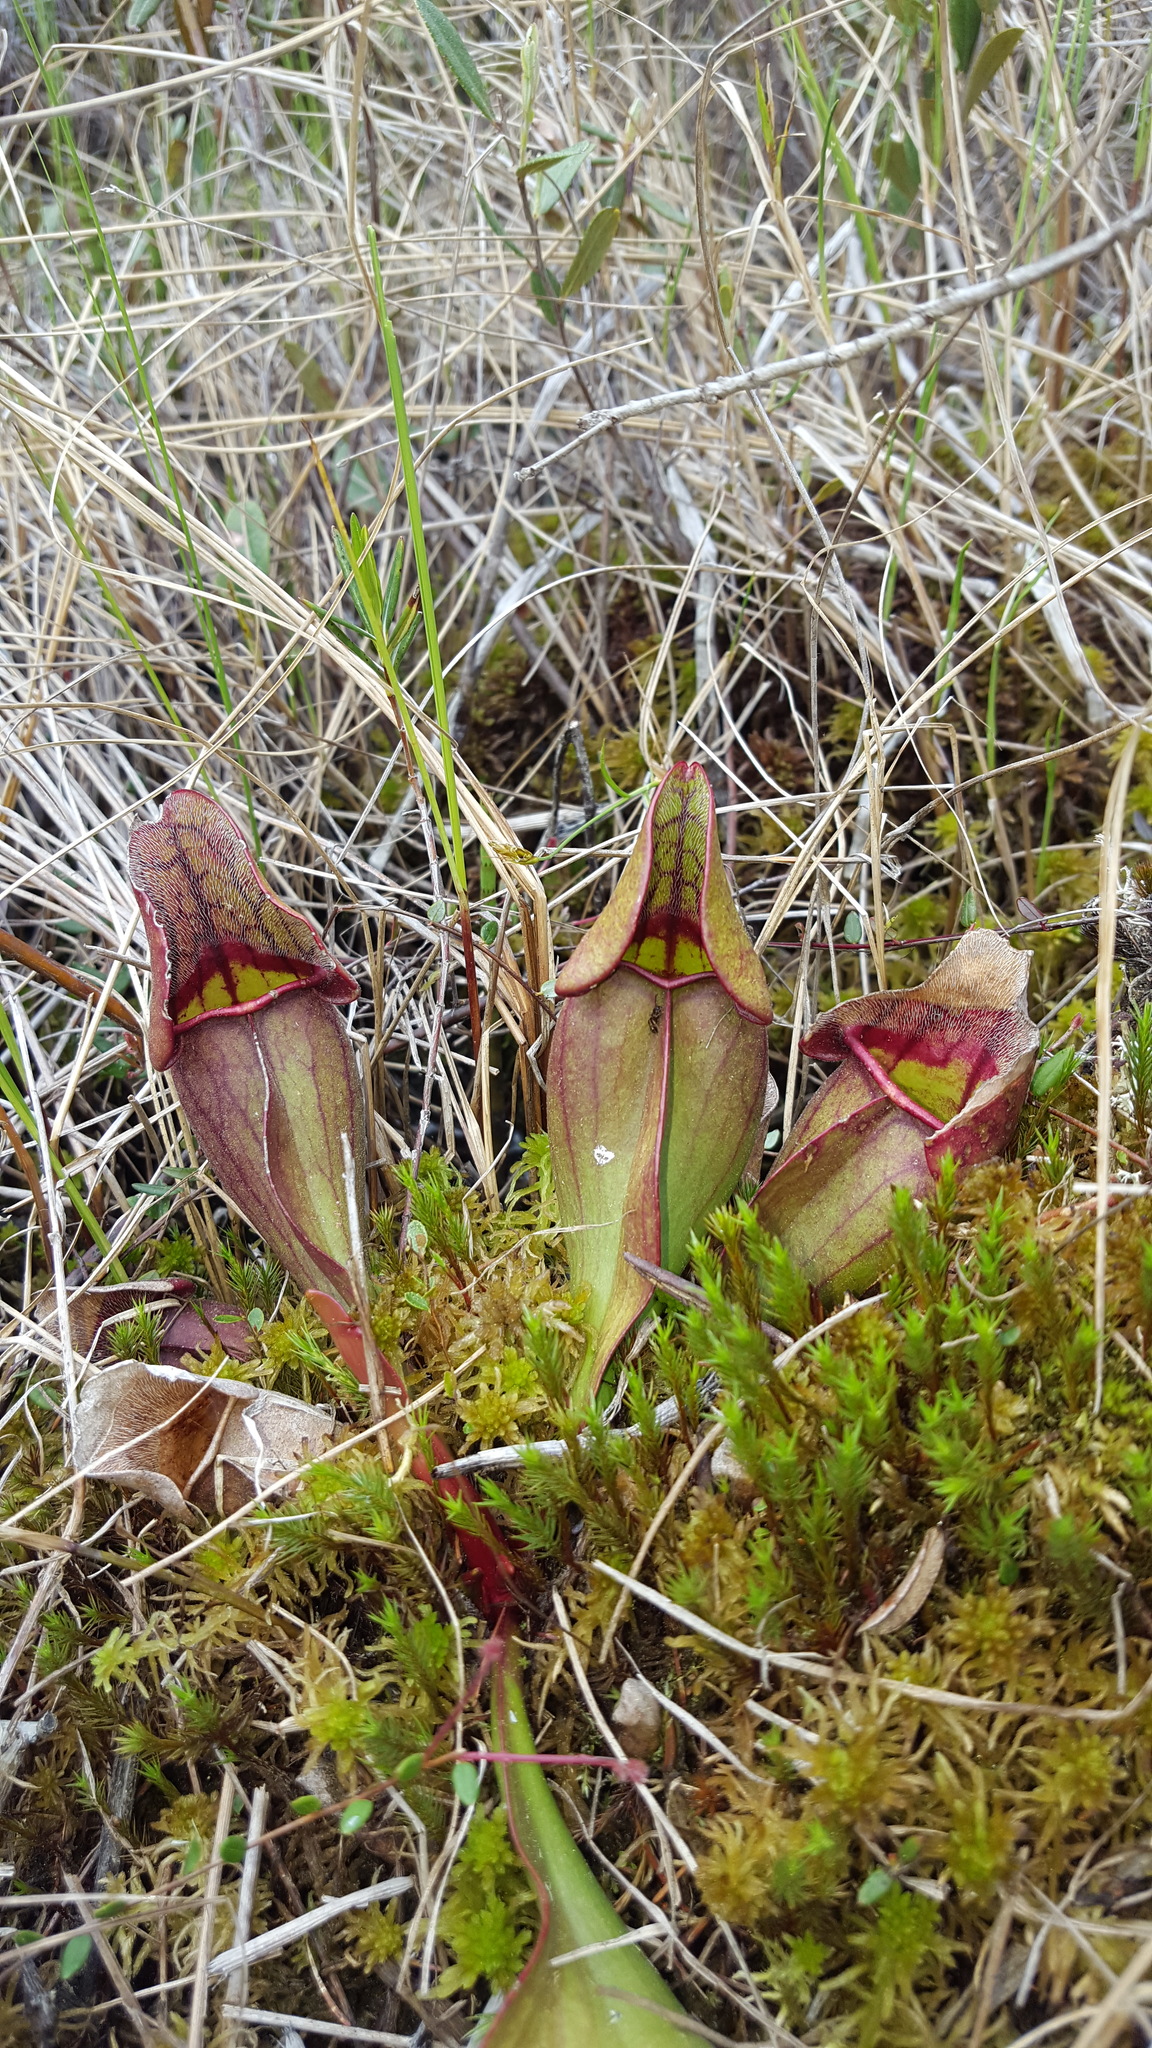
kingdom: Plantae
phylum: Tracheophyta
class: Magnoliopsida
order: Ericales
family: Sarraceniaceae
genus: Sarracenia
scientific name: Sarracenia purpurea
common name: Pitcherplant
